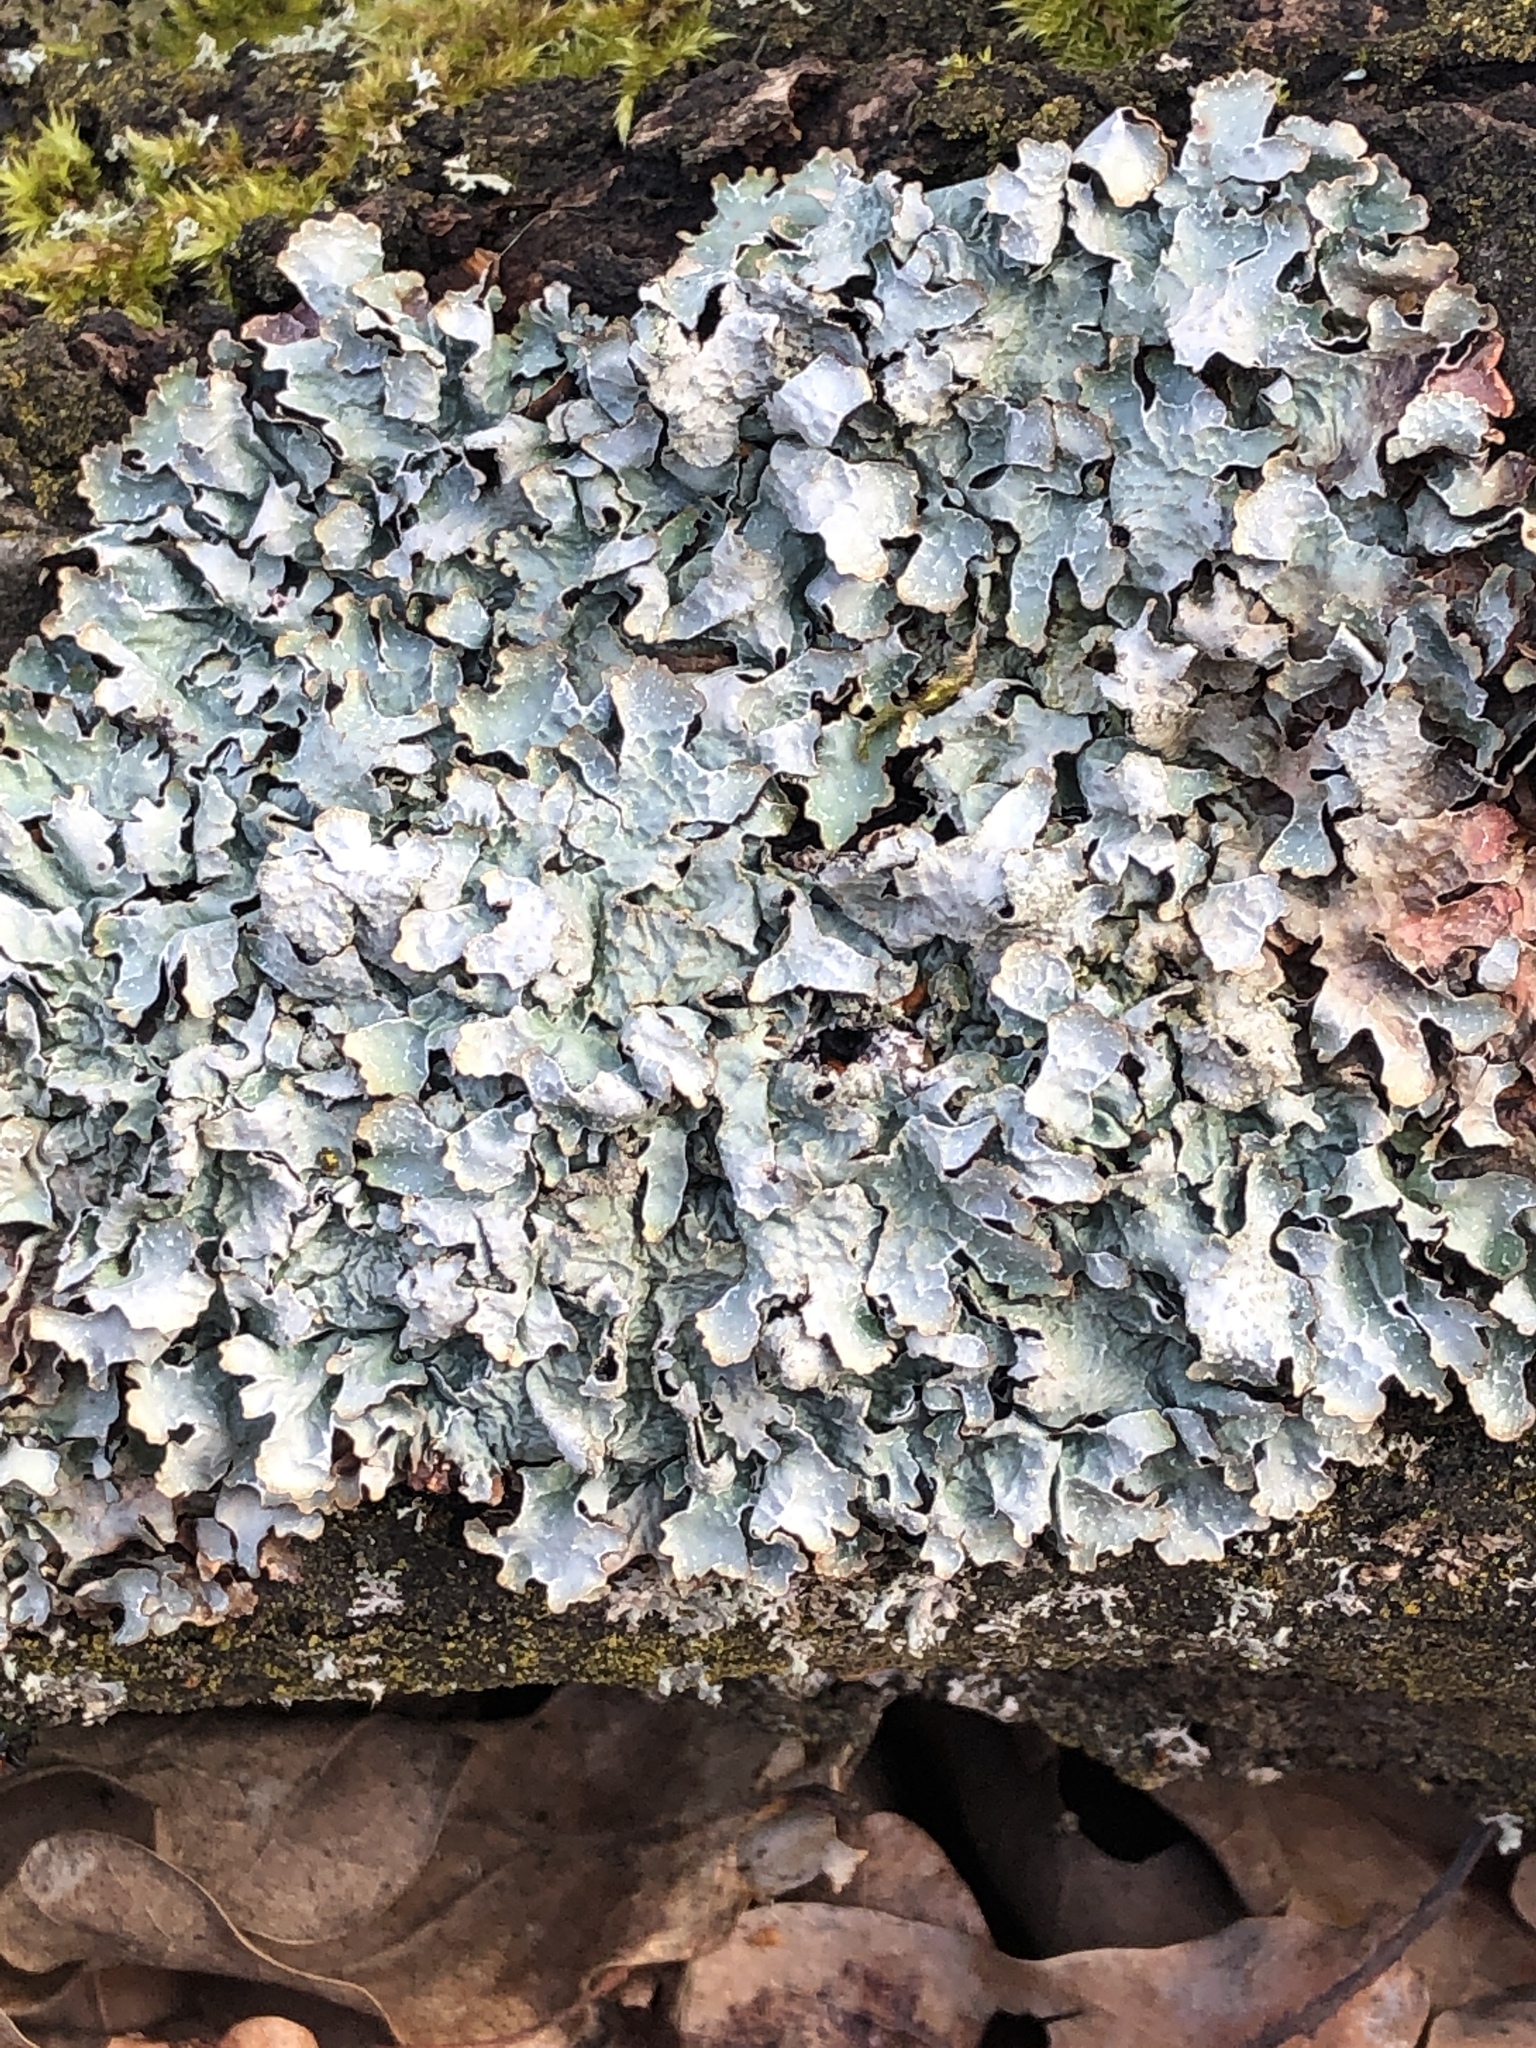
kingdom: Fungi
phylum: Ascomycota
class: Lecanoromycetes
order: Lecanorales
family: Parmeliaceae
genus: Parmelia
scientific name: Parmelia sulcata
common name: Netted shield lichen
